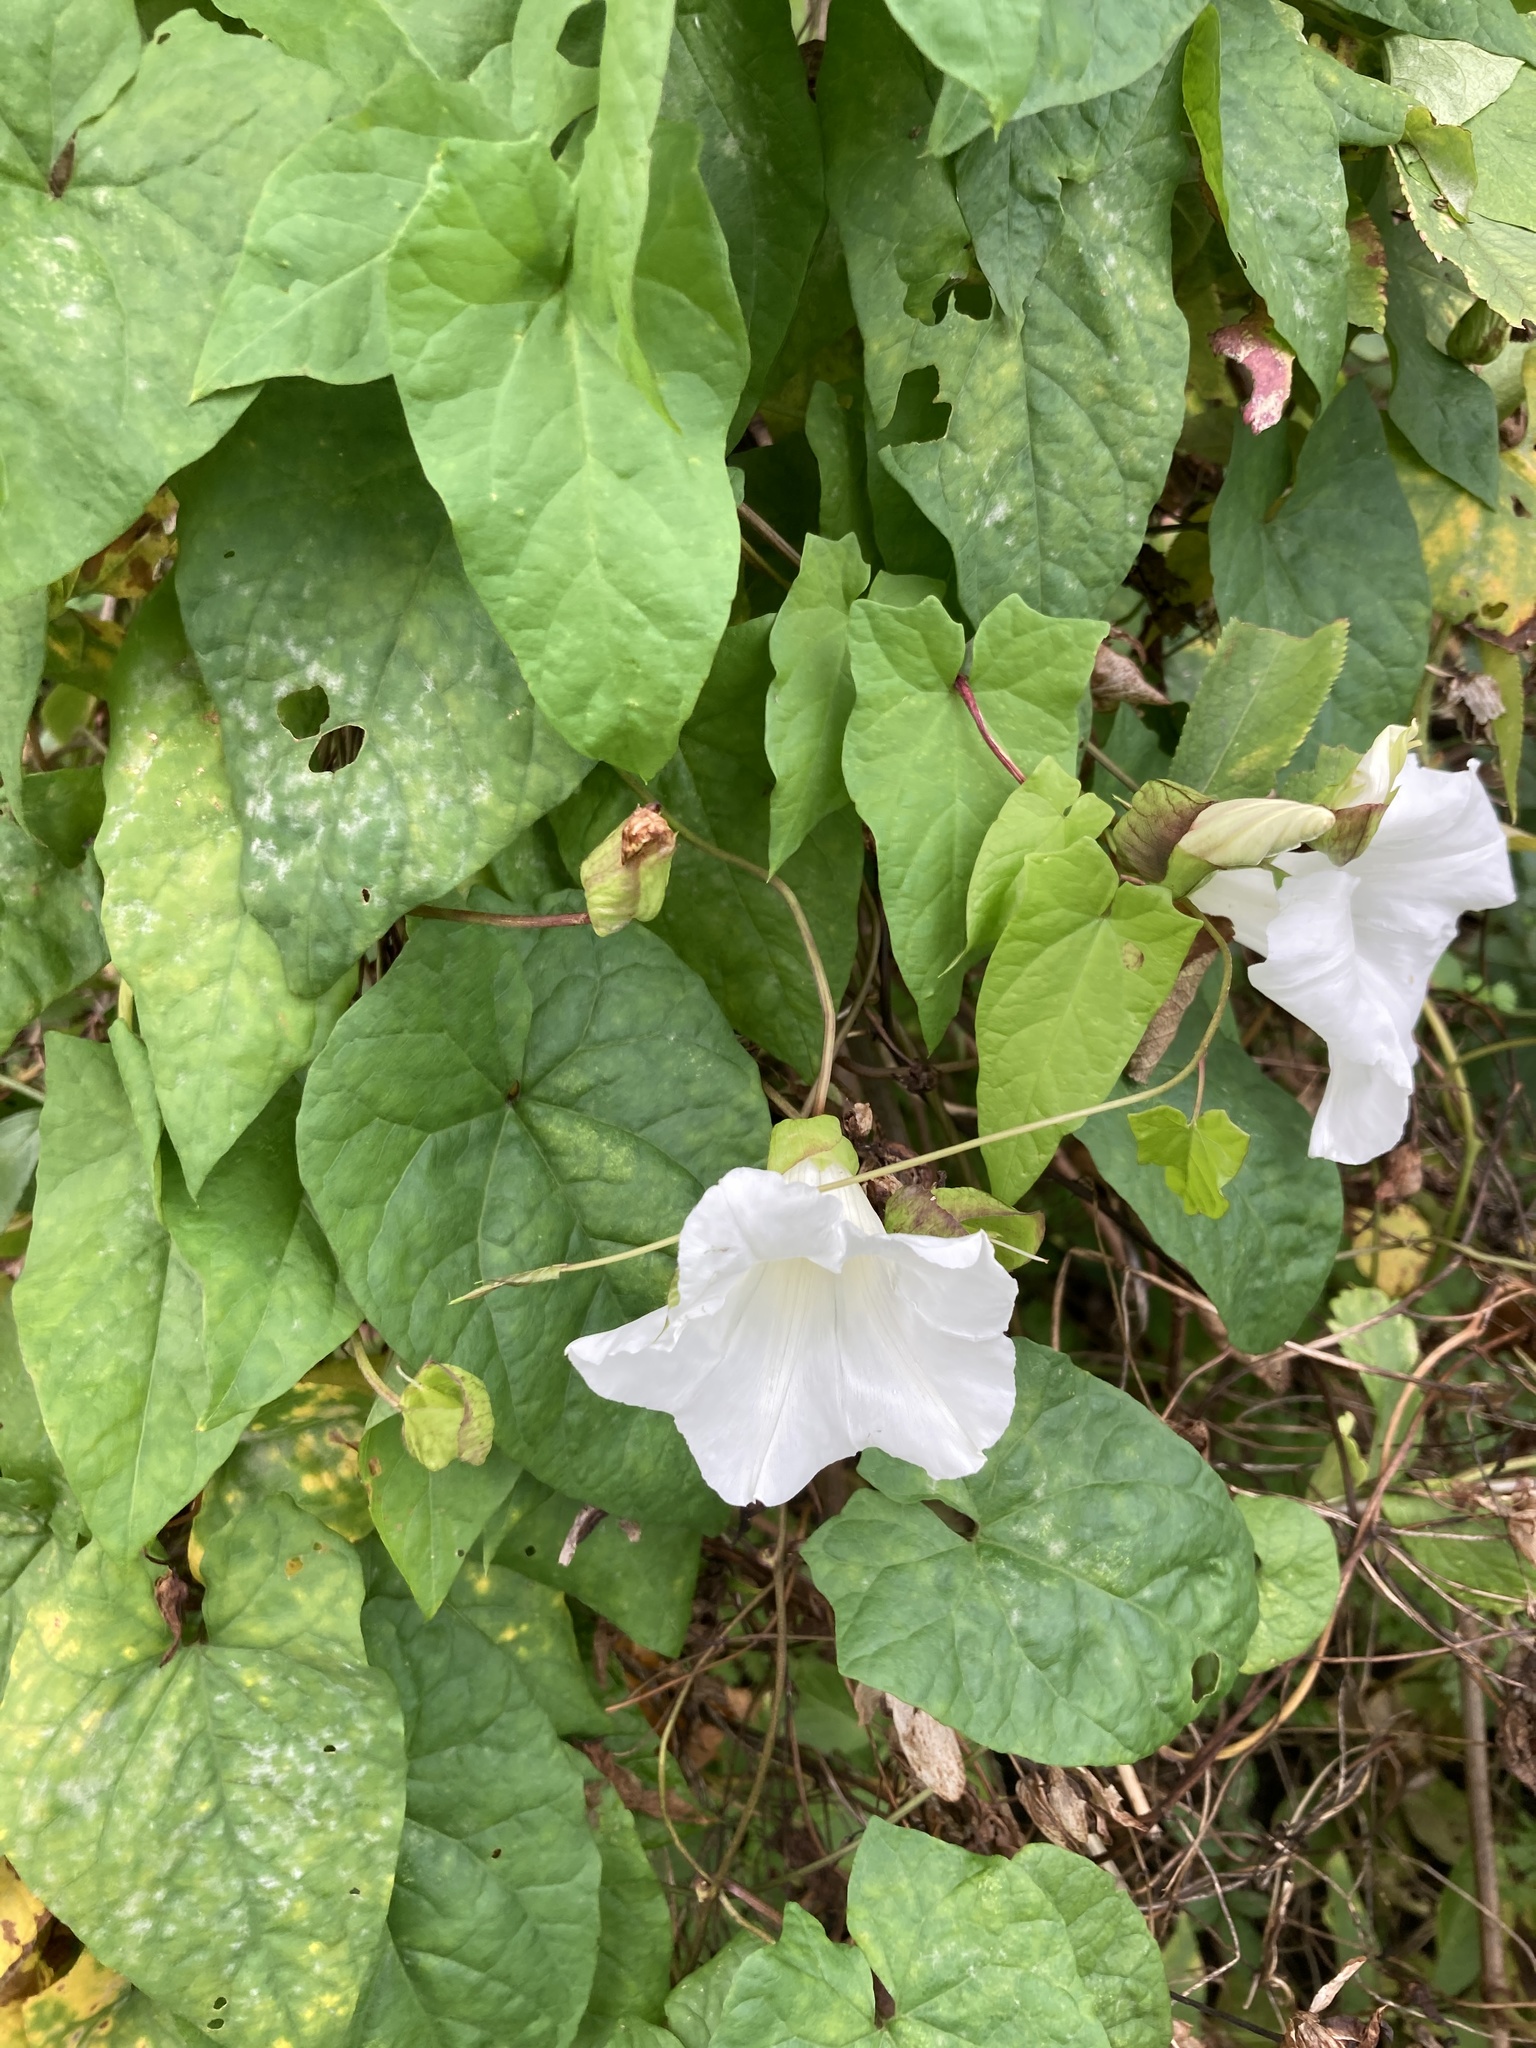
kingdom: Plantae
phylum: Tracheophyta
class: Magnoliopsida
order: Solanales
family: Convolvulaceae
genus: Calystegia
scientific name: Calystegia silvatica
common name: Large bindweed
